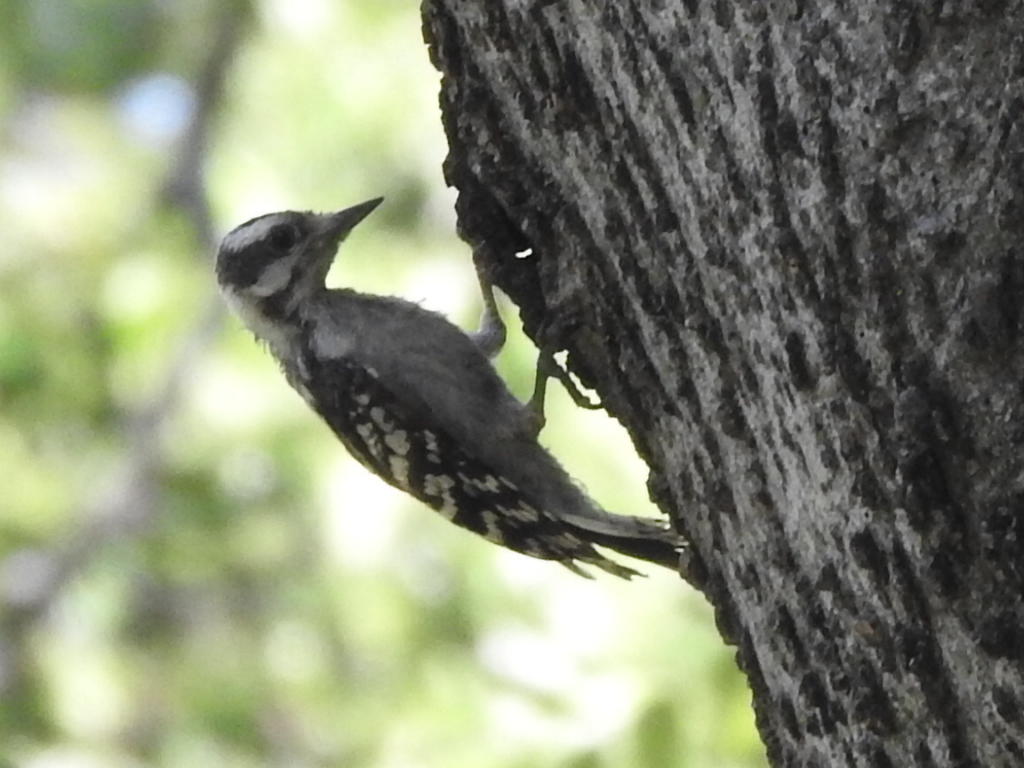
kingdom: Animalia
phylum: Chordata
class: Aves
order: Piciformes
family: Picidae
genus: Dryobates
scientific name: Dryobates pubescens
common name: Downy woodpecker
